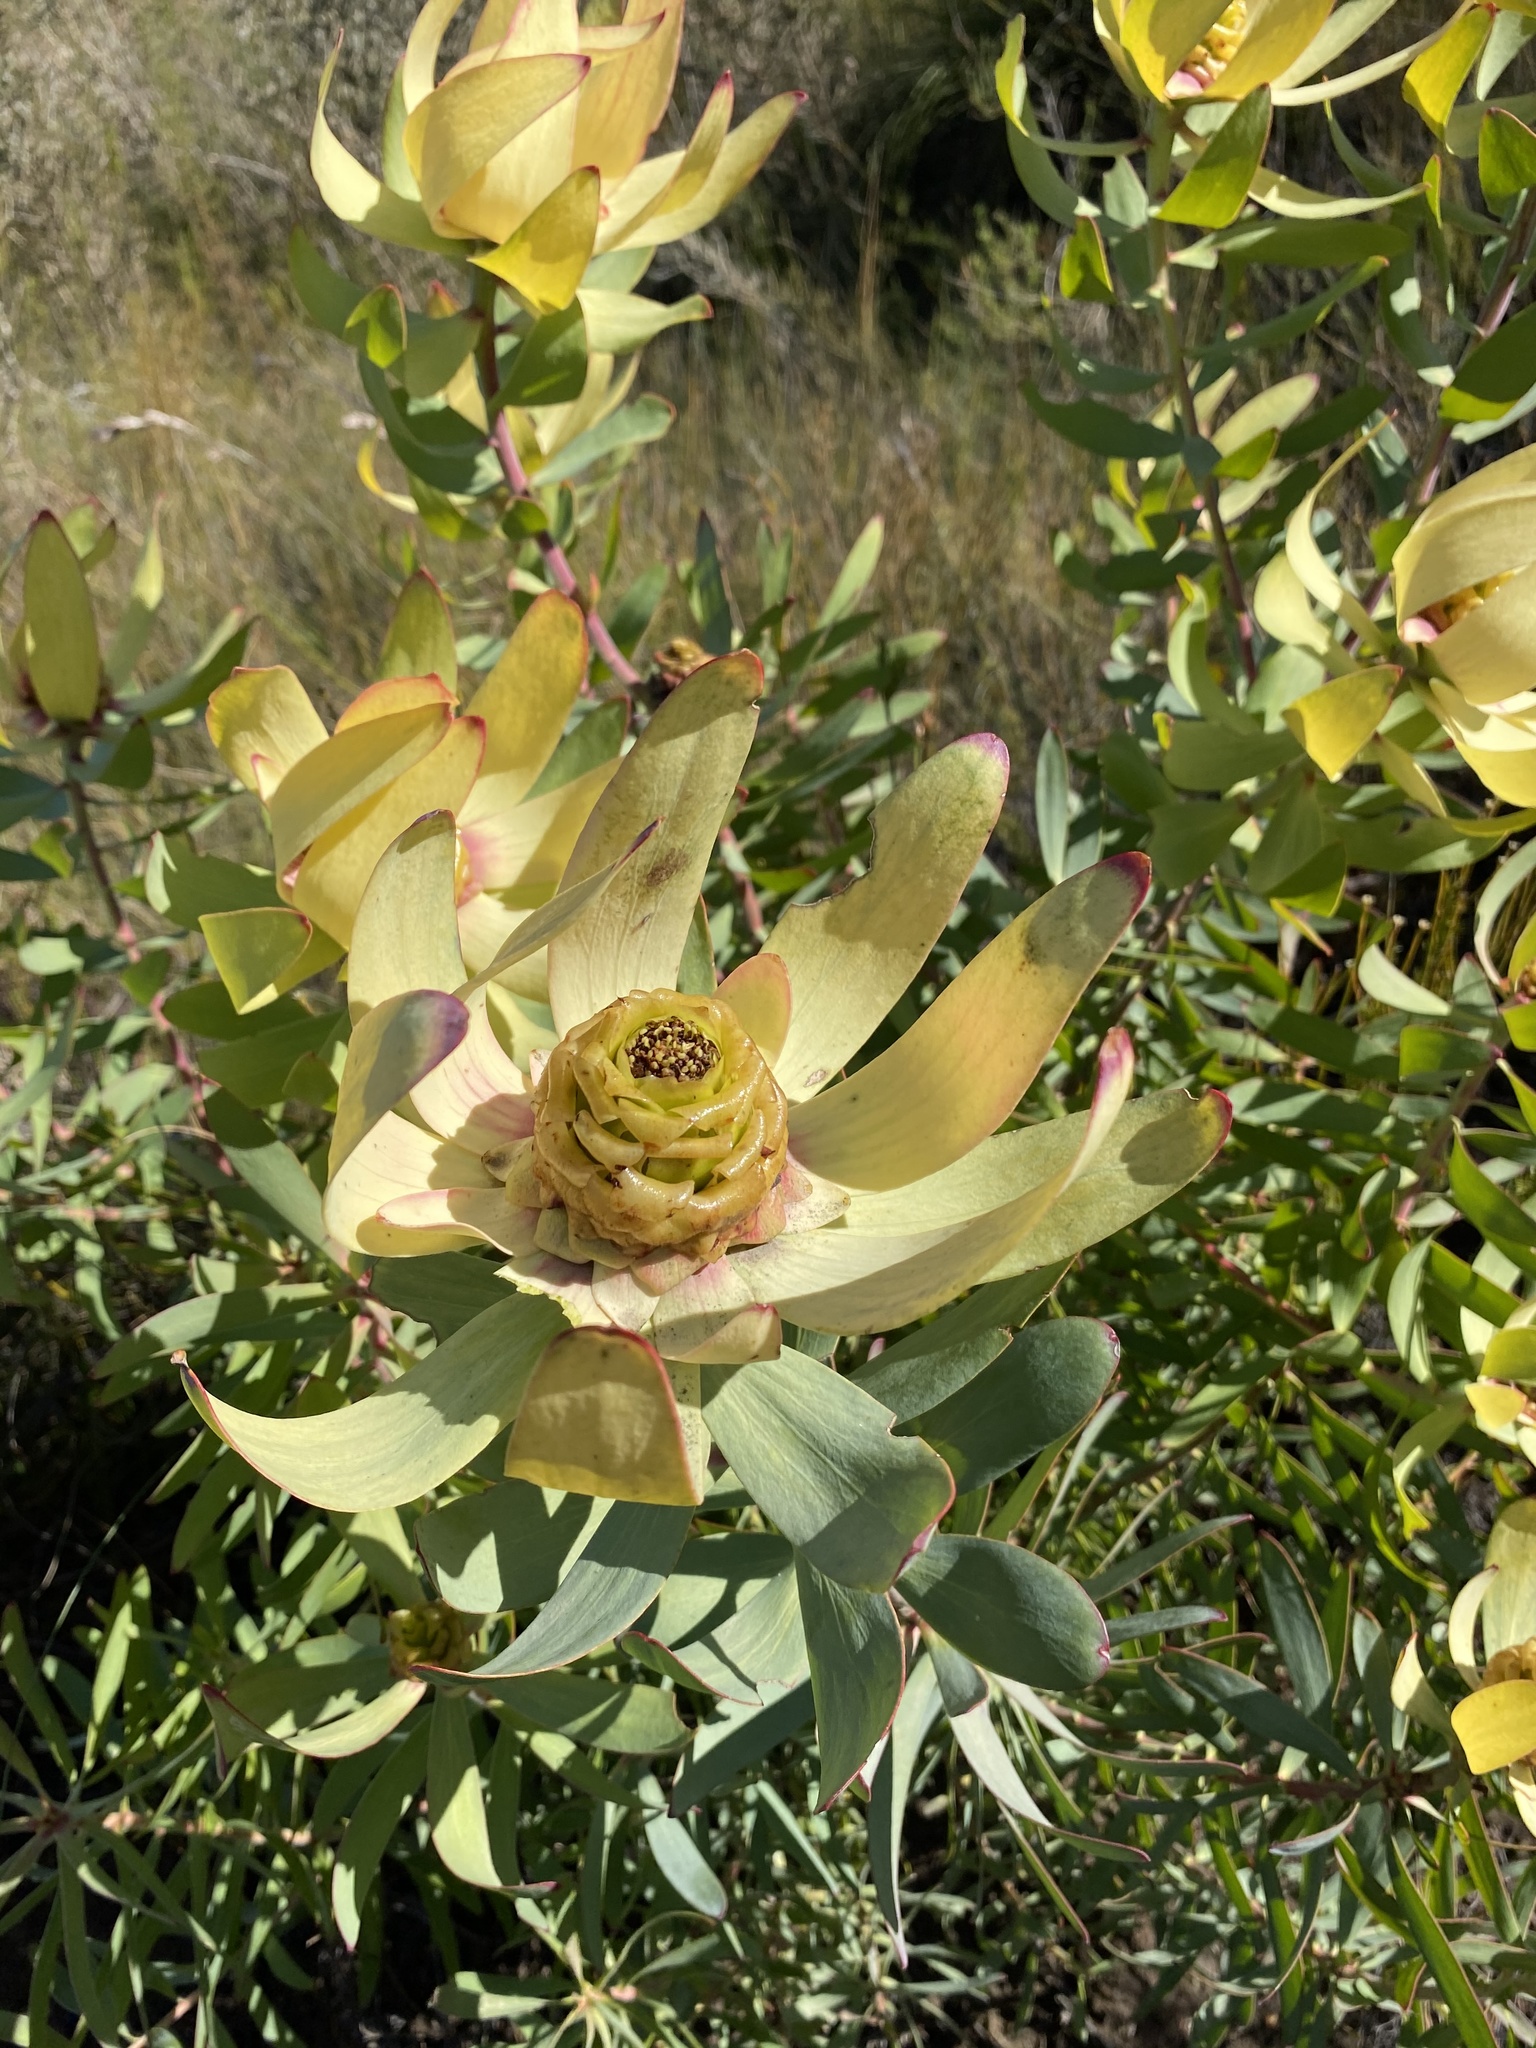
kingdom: Plantae
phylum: Tracheophyta
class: Magnoliopsida
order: Proteales
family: Proteaceae
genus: Leucadendron
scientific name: Leucadendron tinctum
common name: Spicy conebush
